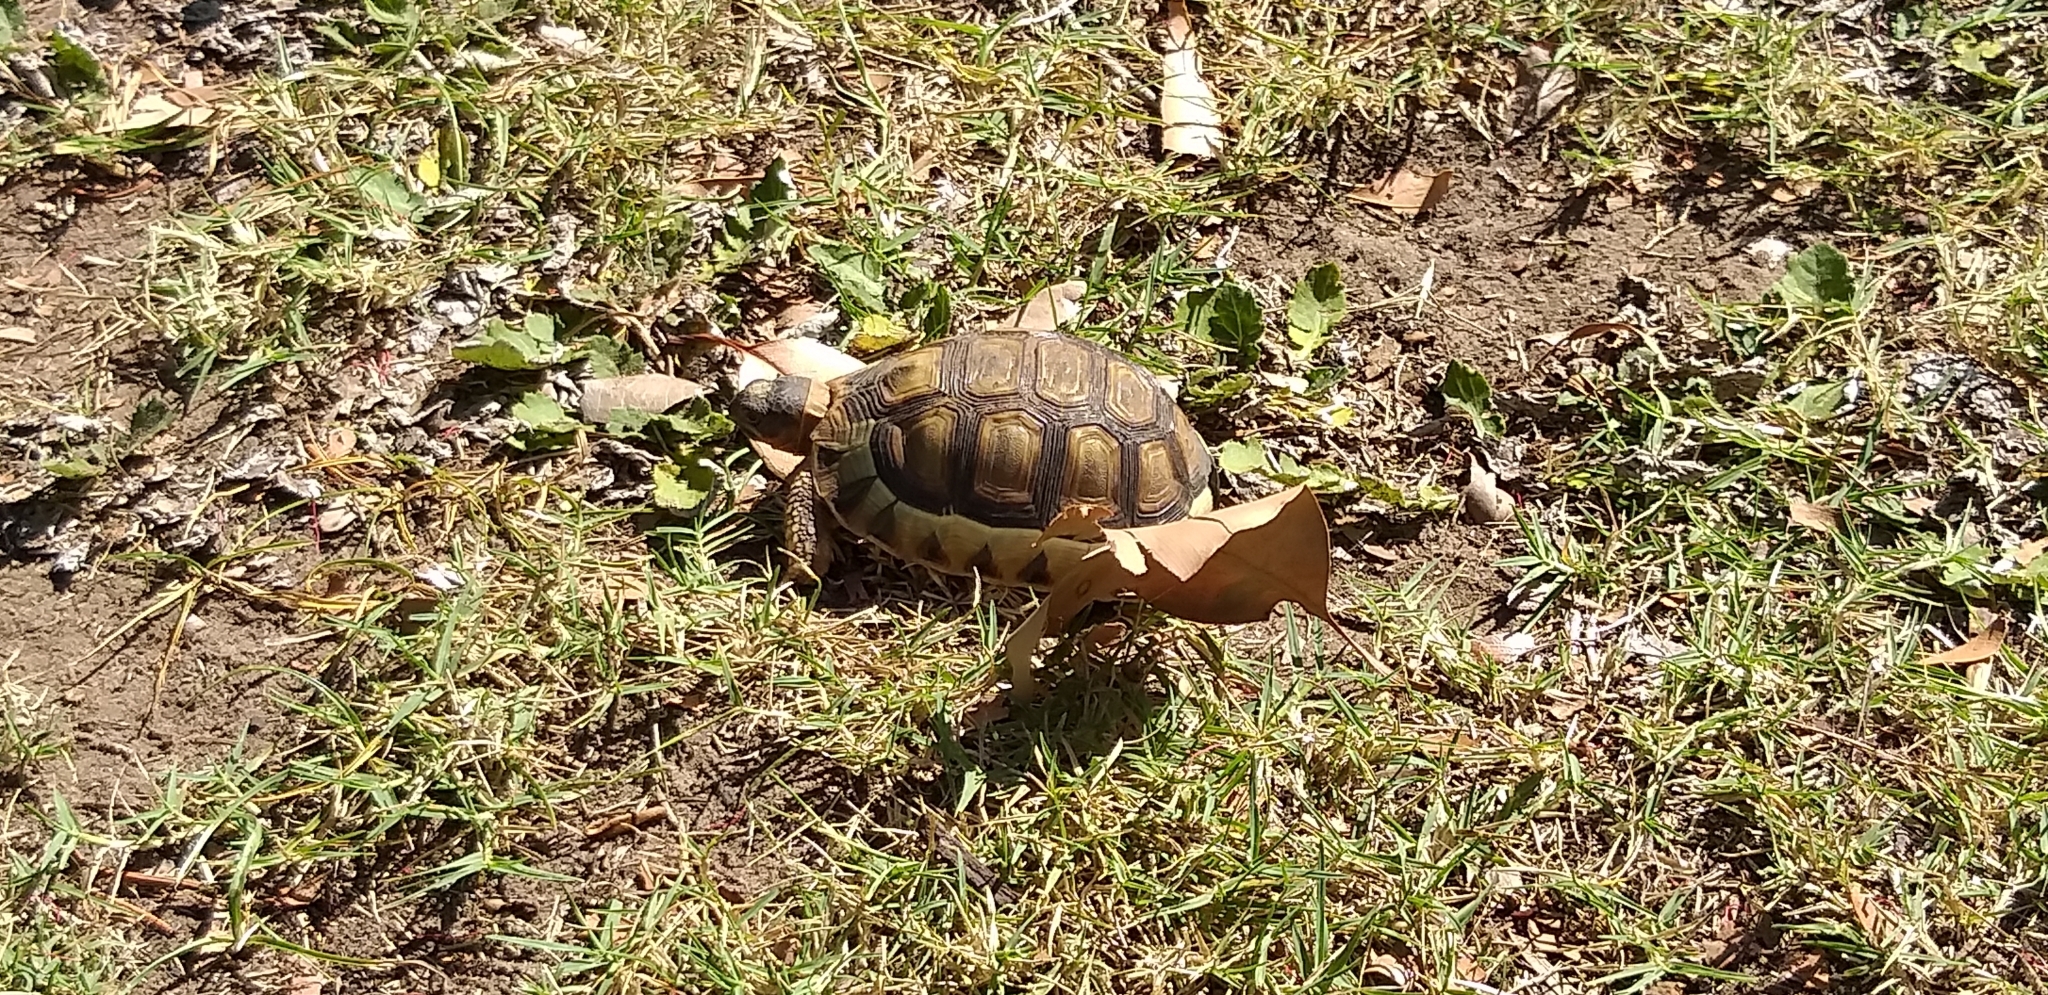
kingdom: Animalia
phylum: Chordata
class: Testudines
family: Testudinidae
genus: Chersina
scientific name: Chersina angulata
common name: South african bowsprit tortoise
